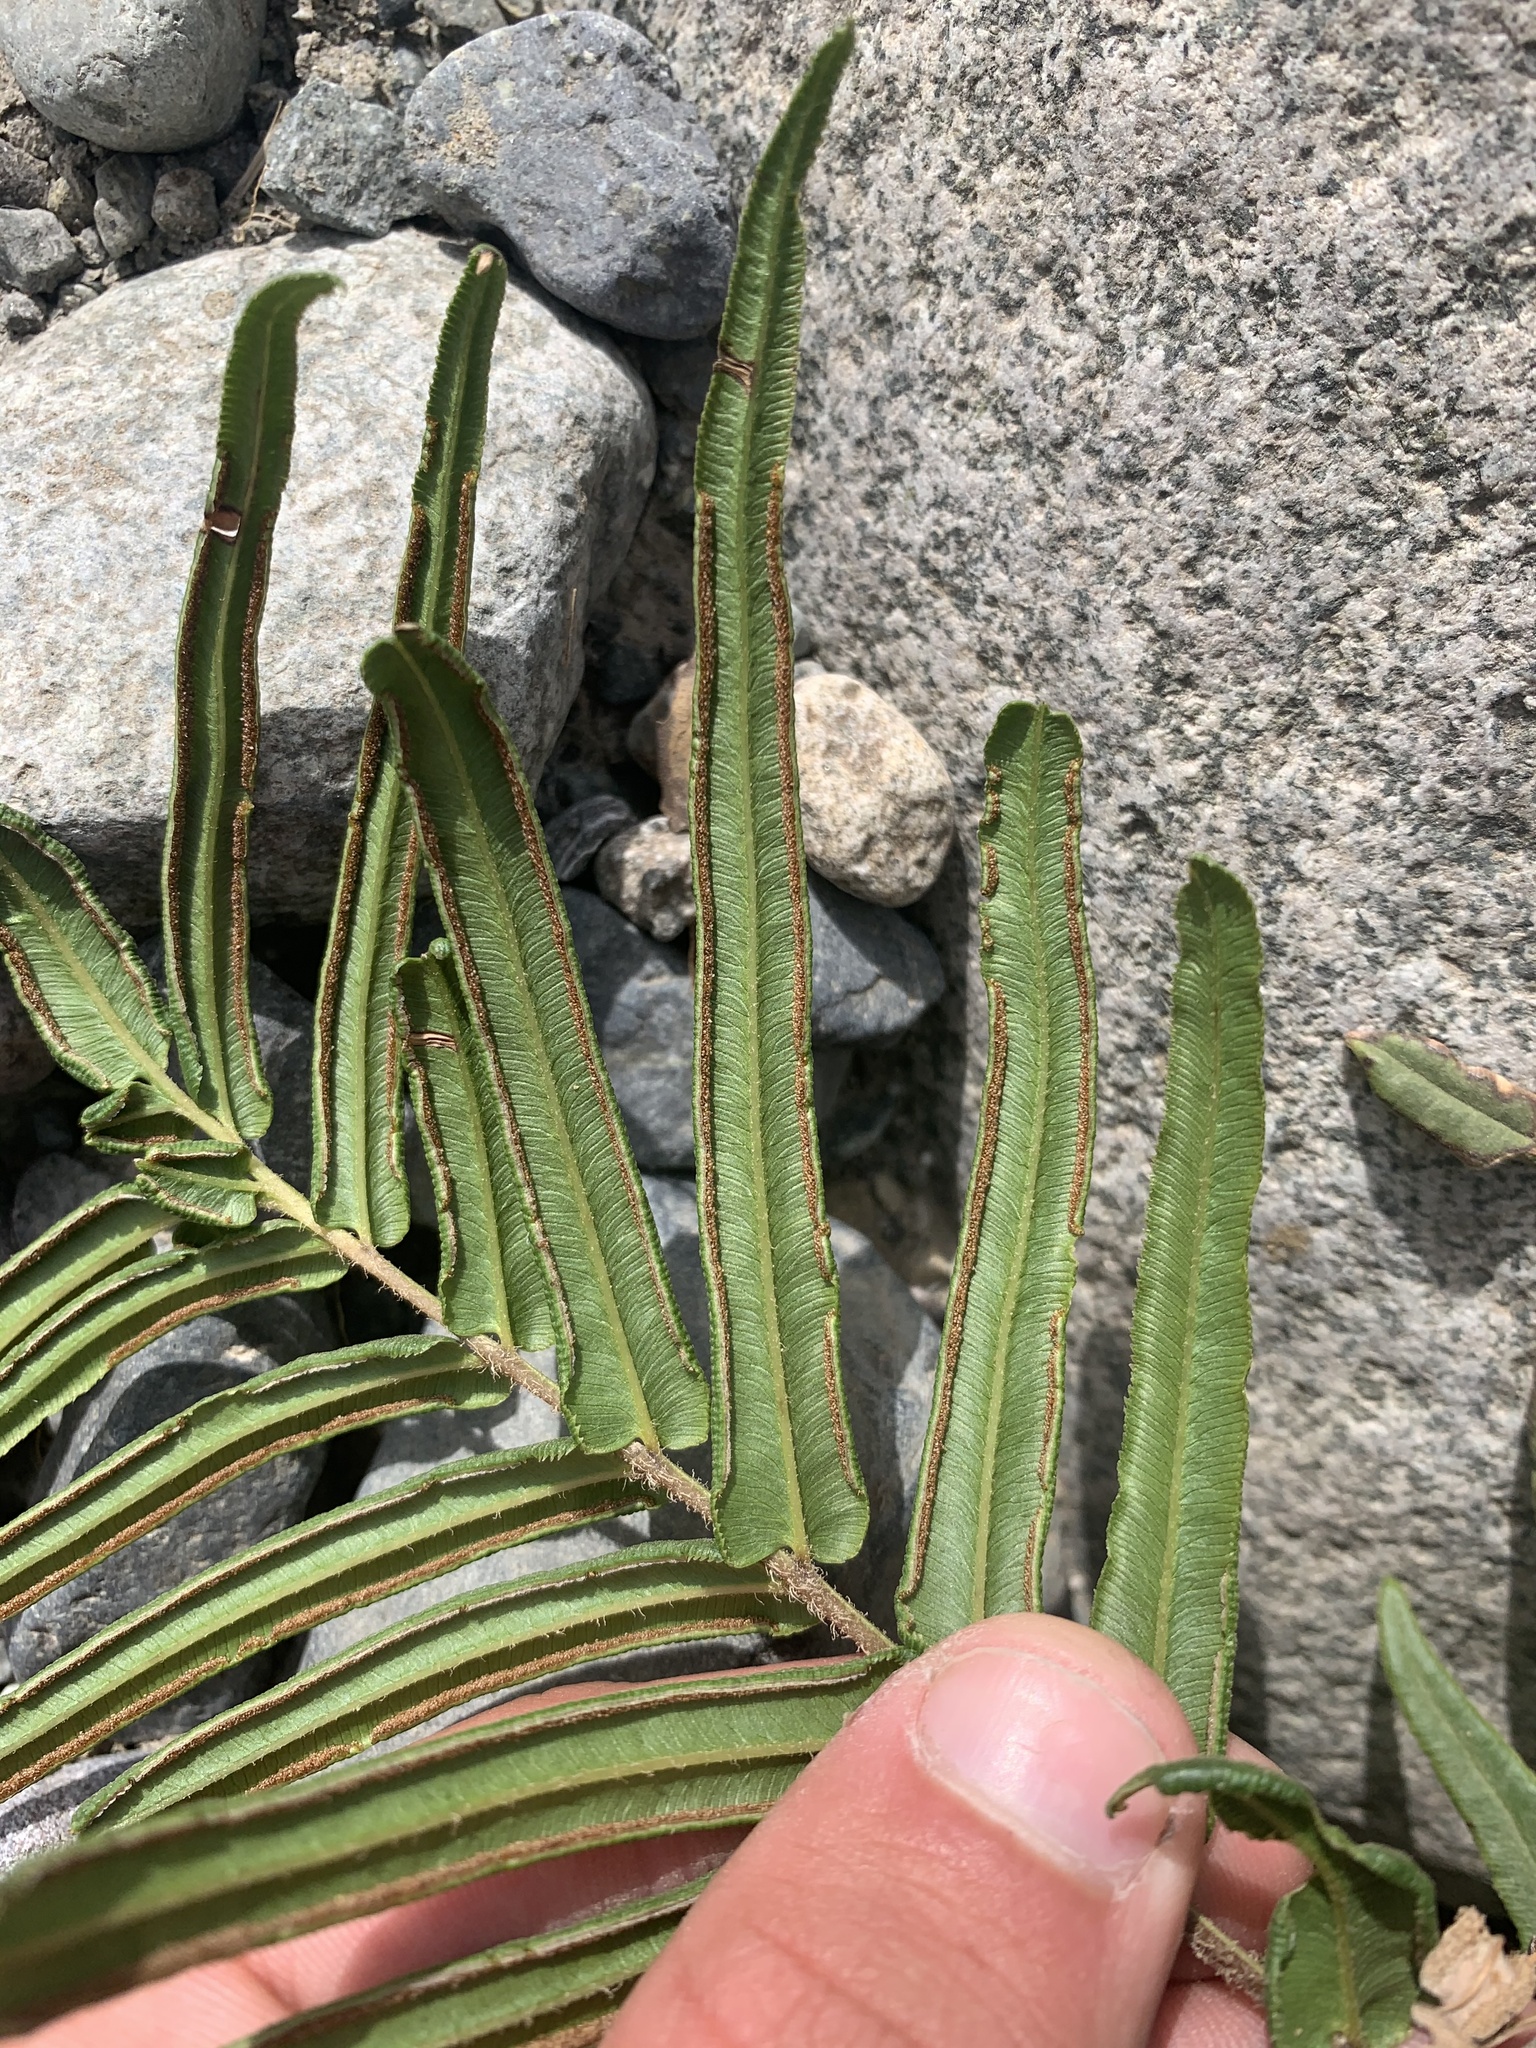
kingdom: Plantae
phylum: Tracheophyta
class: Polypodiopsida
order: Polypodiales
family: Pteridaceae
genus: Pteris
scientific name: Pteris vittata
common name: Ladder brake
